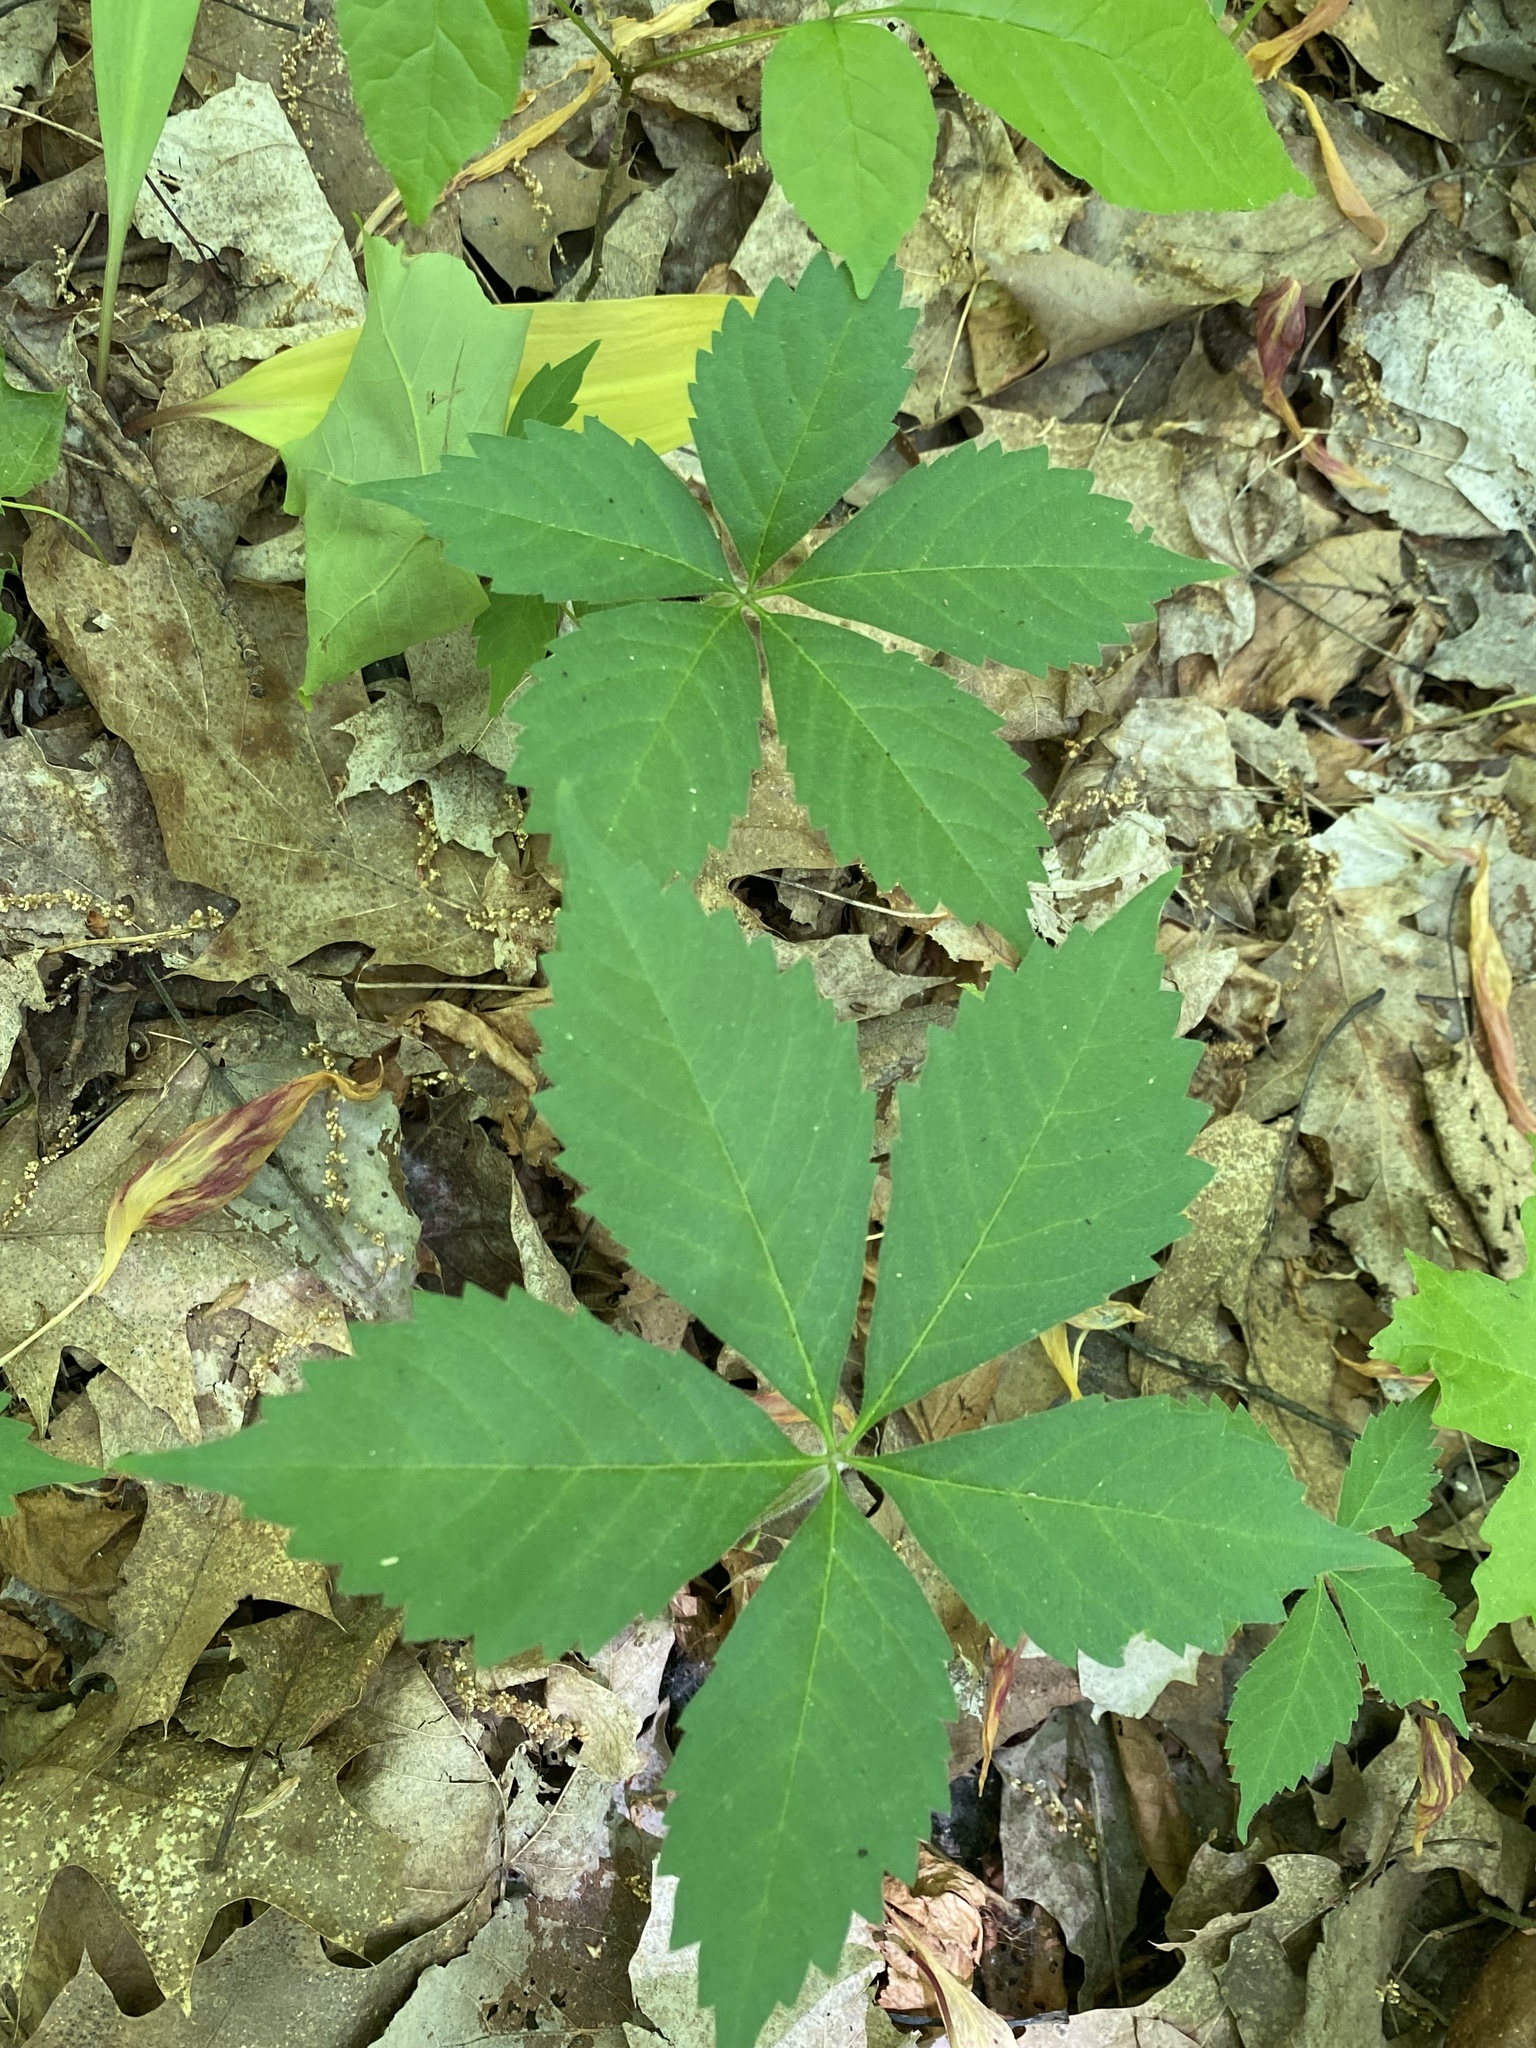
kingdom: Plantae
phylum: Tracheophyta
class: Magnoliopsida
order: Vitales
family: Vitaceae
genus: Parthenocissus
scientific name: Parthenocissus quinquefolia
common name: Virginia-creeper
